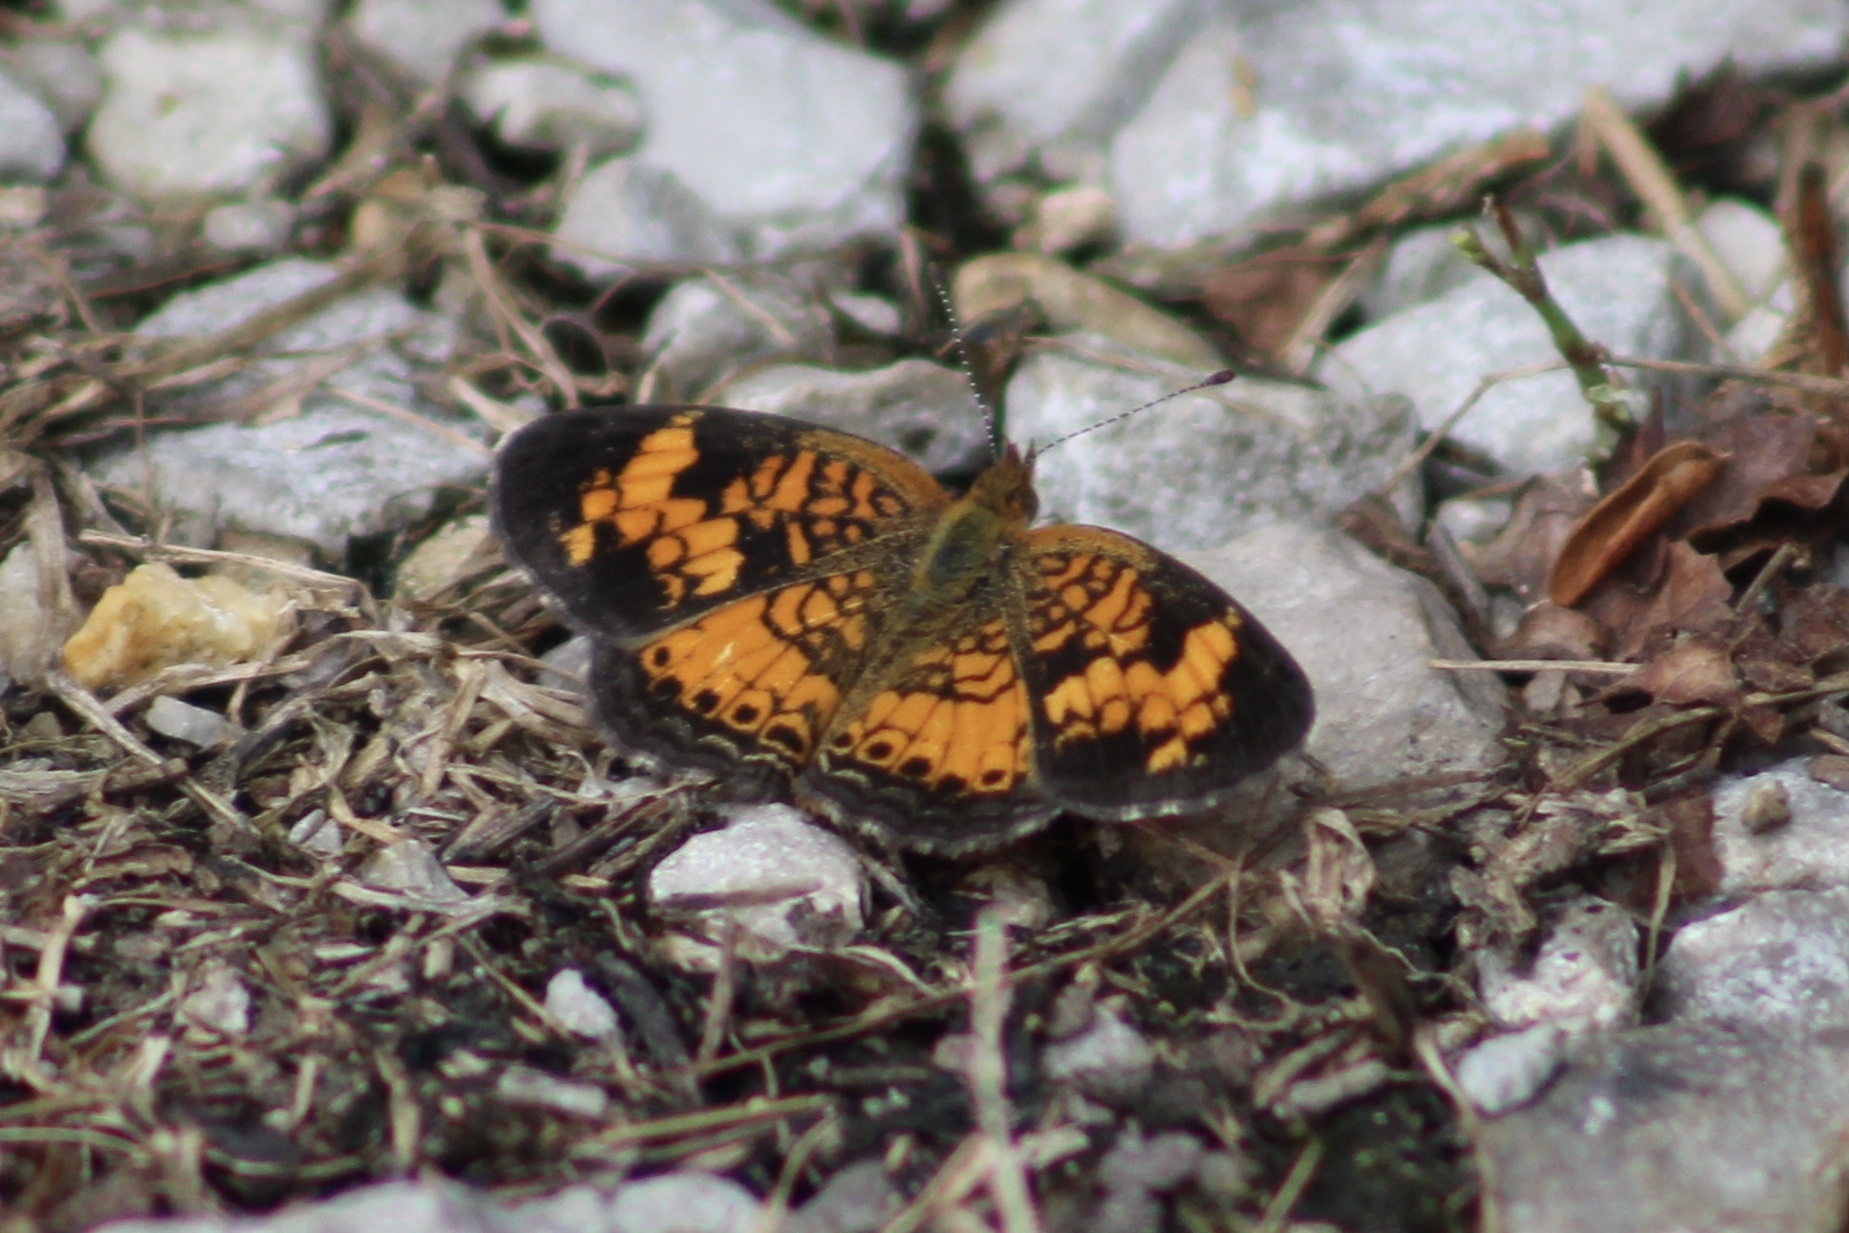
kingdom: Animalia
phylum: Arthropoda
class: Insecta
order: Lepidoptera
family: Nymphalidae
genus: Phyciodes
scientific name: Phyciodes tharos
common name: Pearl crescent
